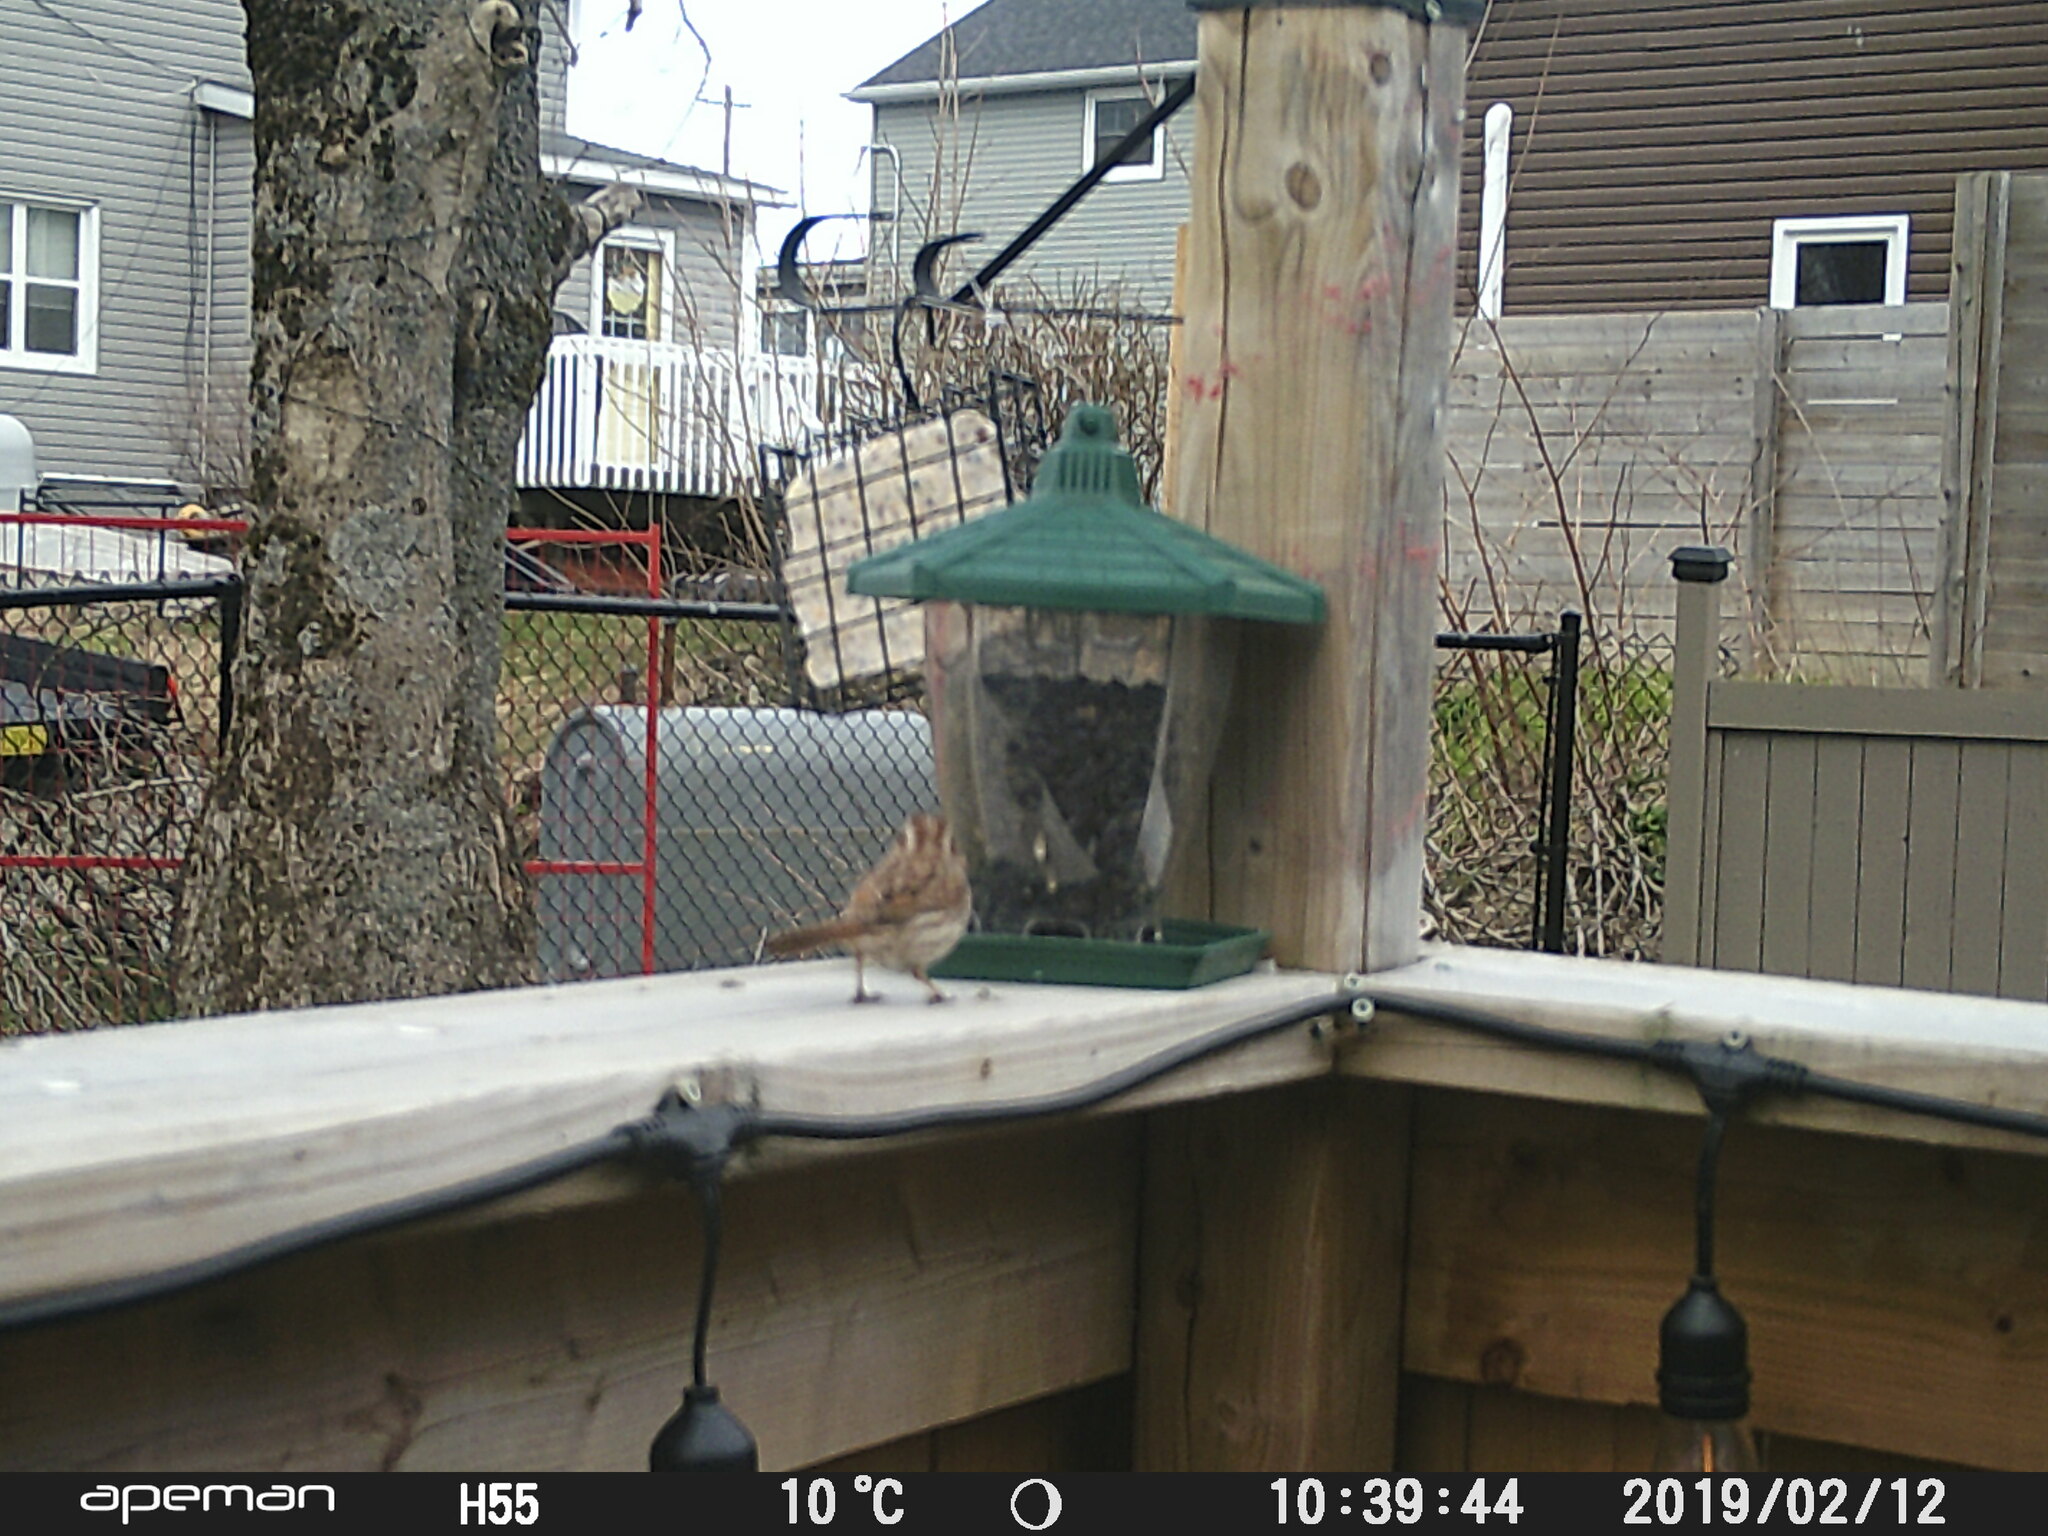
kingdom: Animalia
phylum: Chordata
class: Aves
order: Passeriformes
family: Passerellidae
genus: Melospiza
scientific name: Melospiza melodia
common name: Song sparrow
